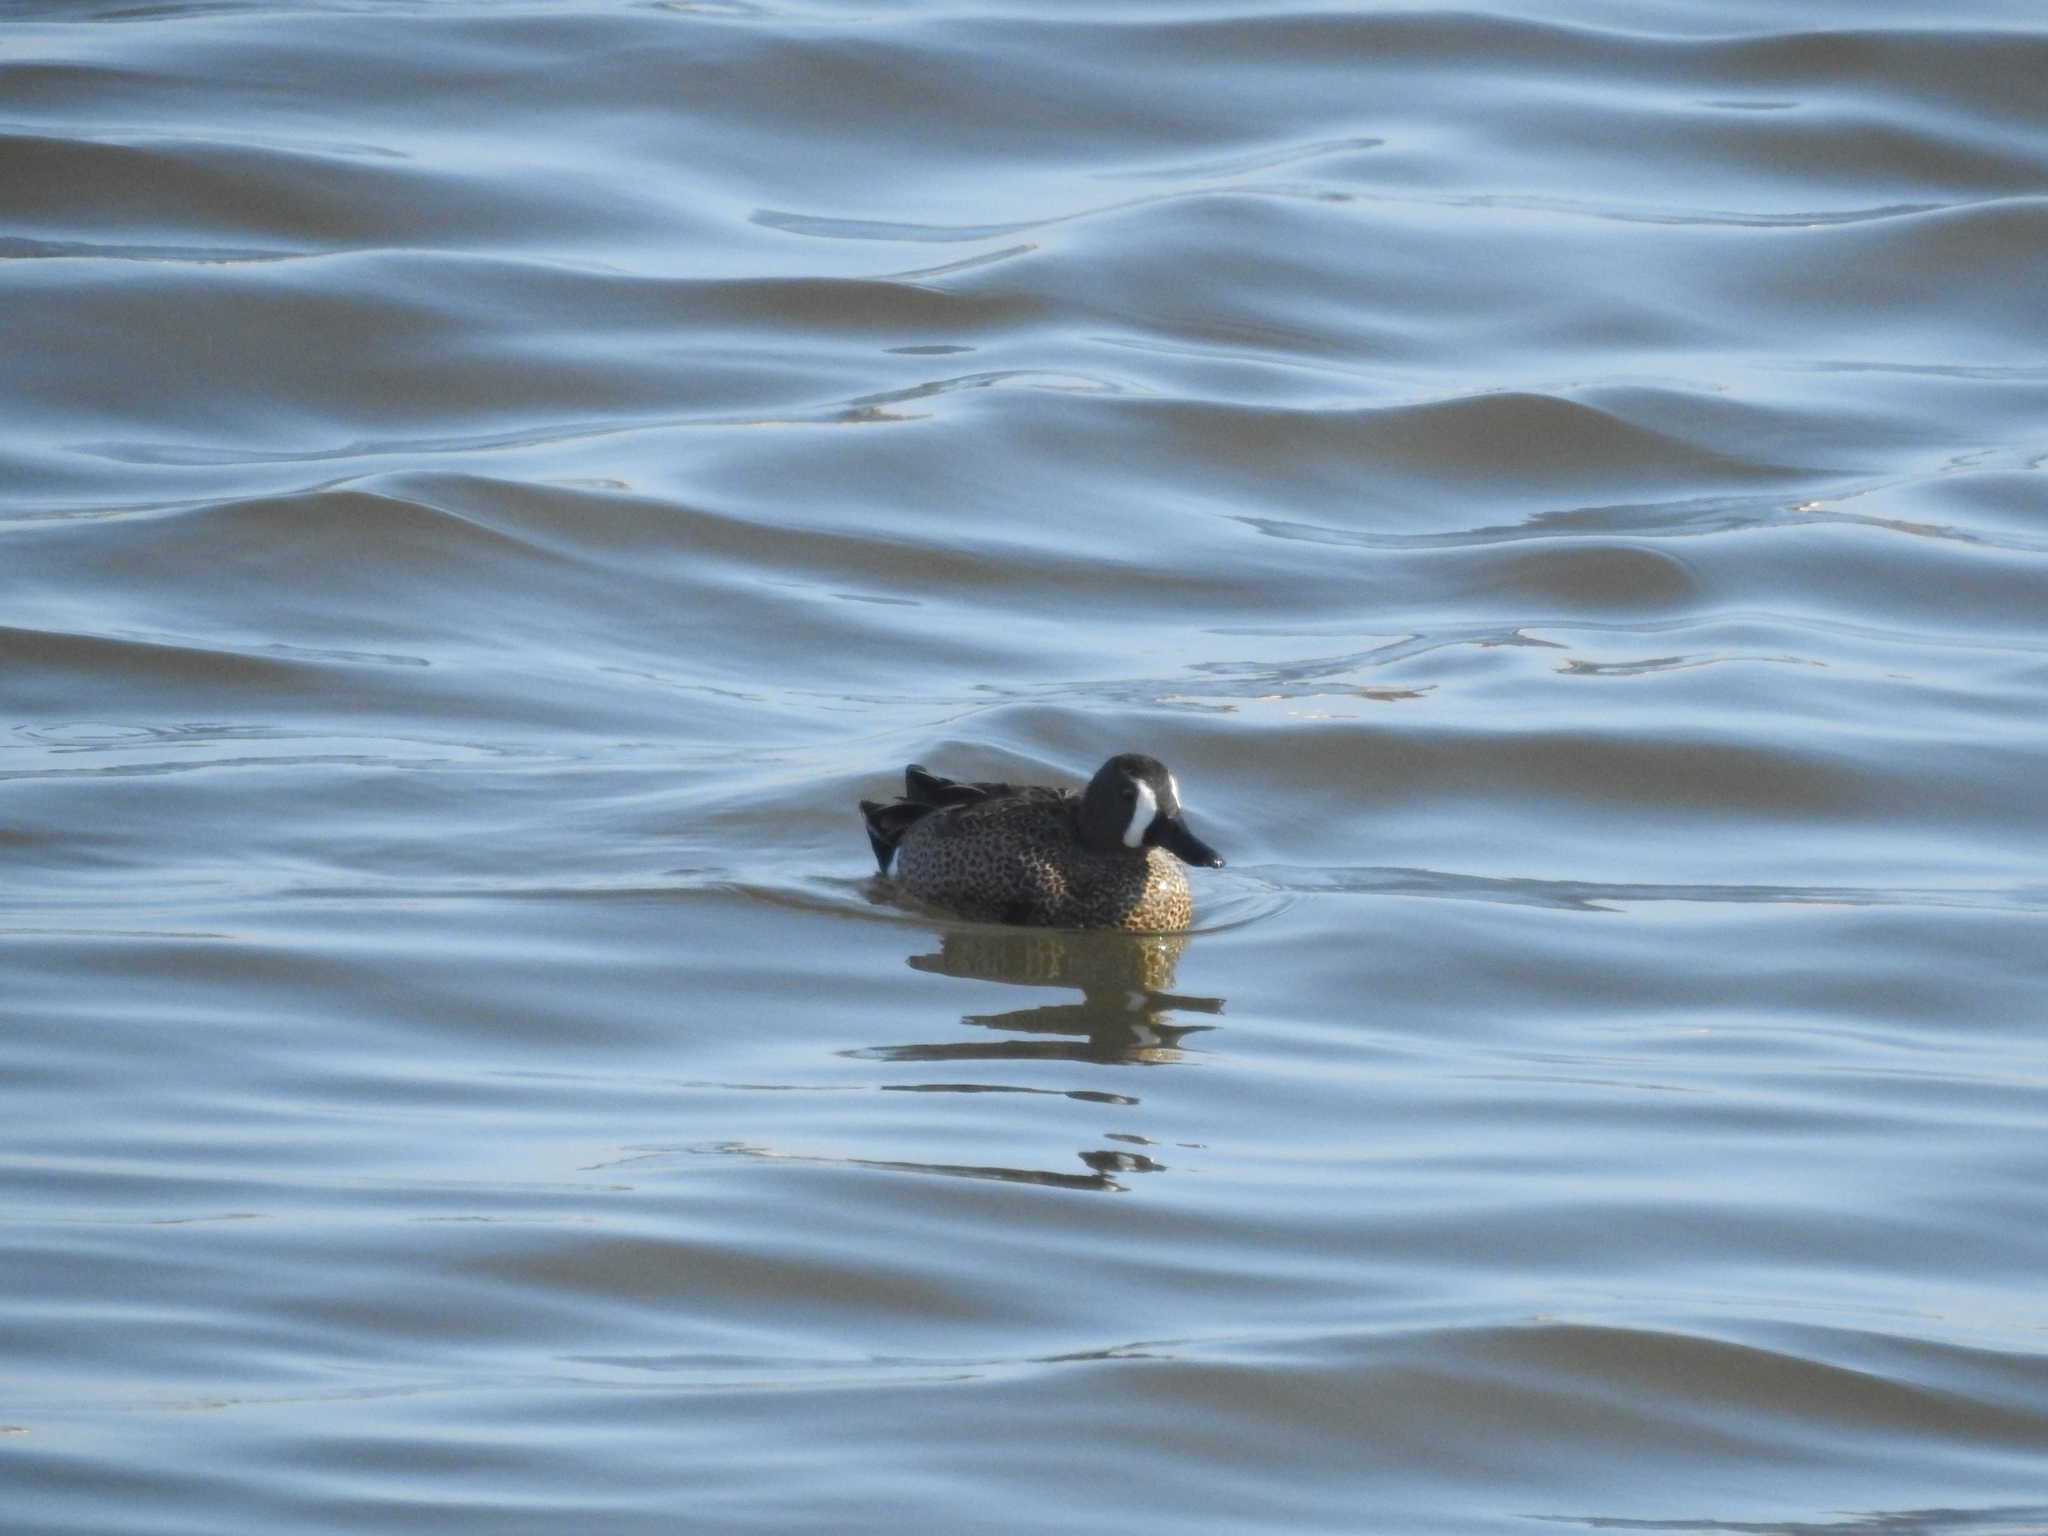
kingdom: Animalia
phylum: Chordata
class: Aves
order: Anseriformes
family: Anatidae
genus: Spatula
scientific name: Spatula discors
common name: Blue-winged teal
